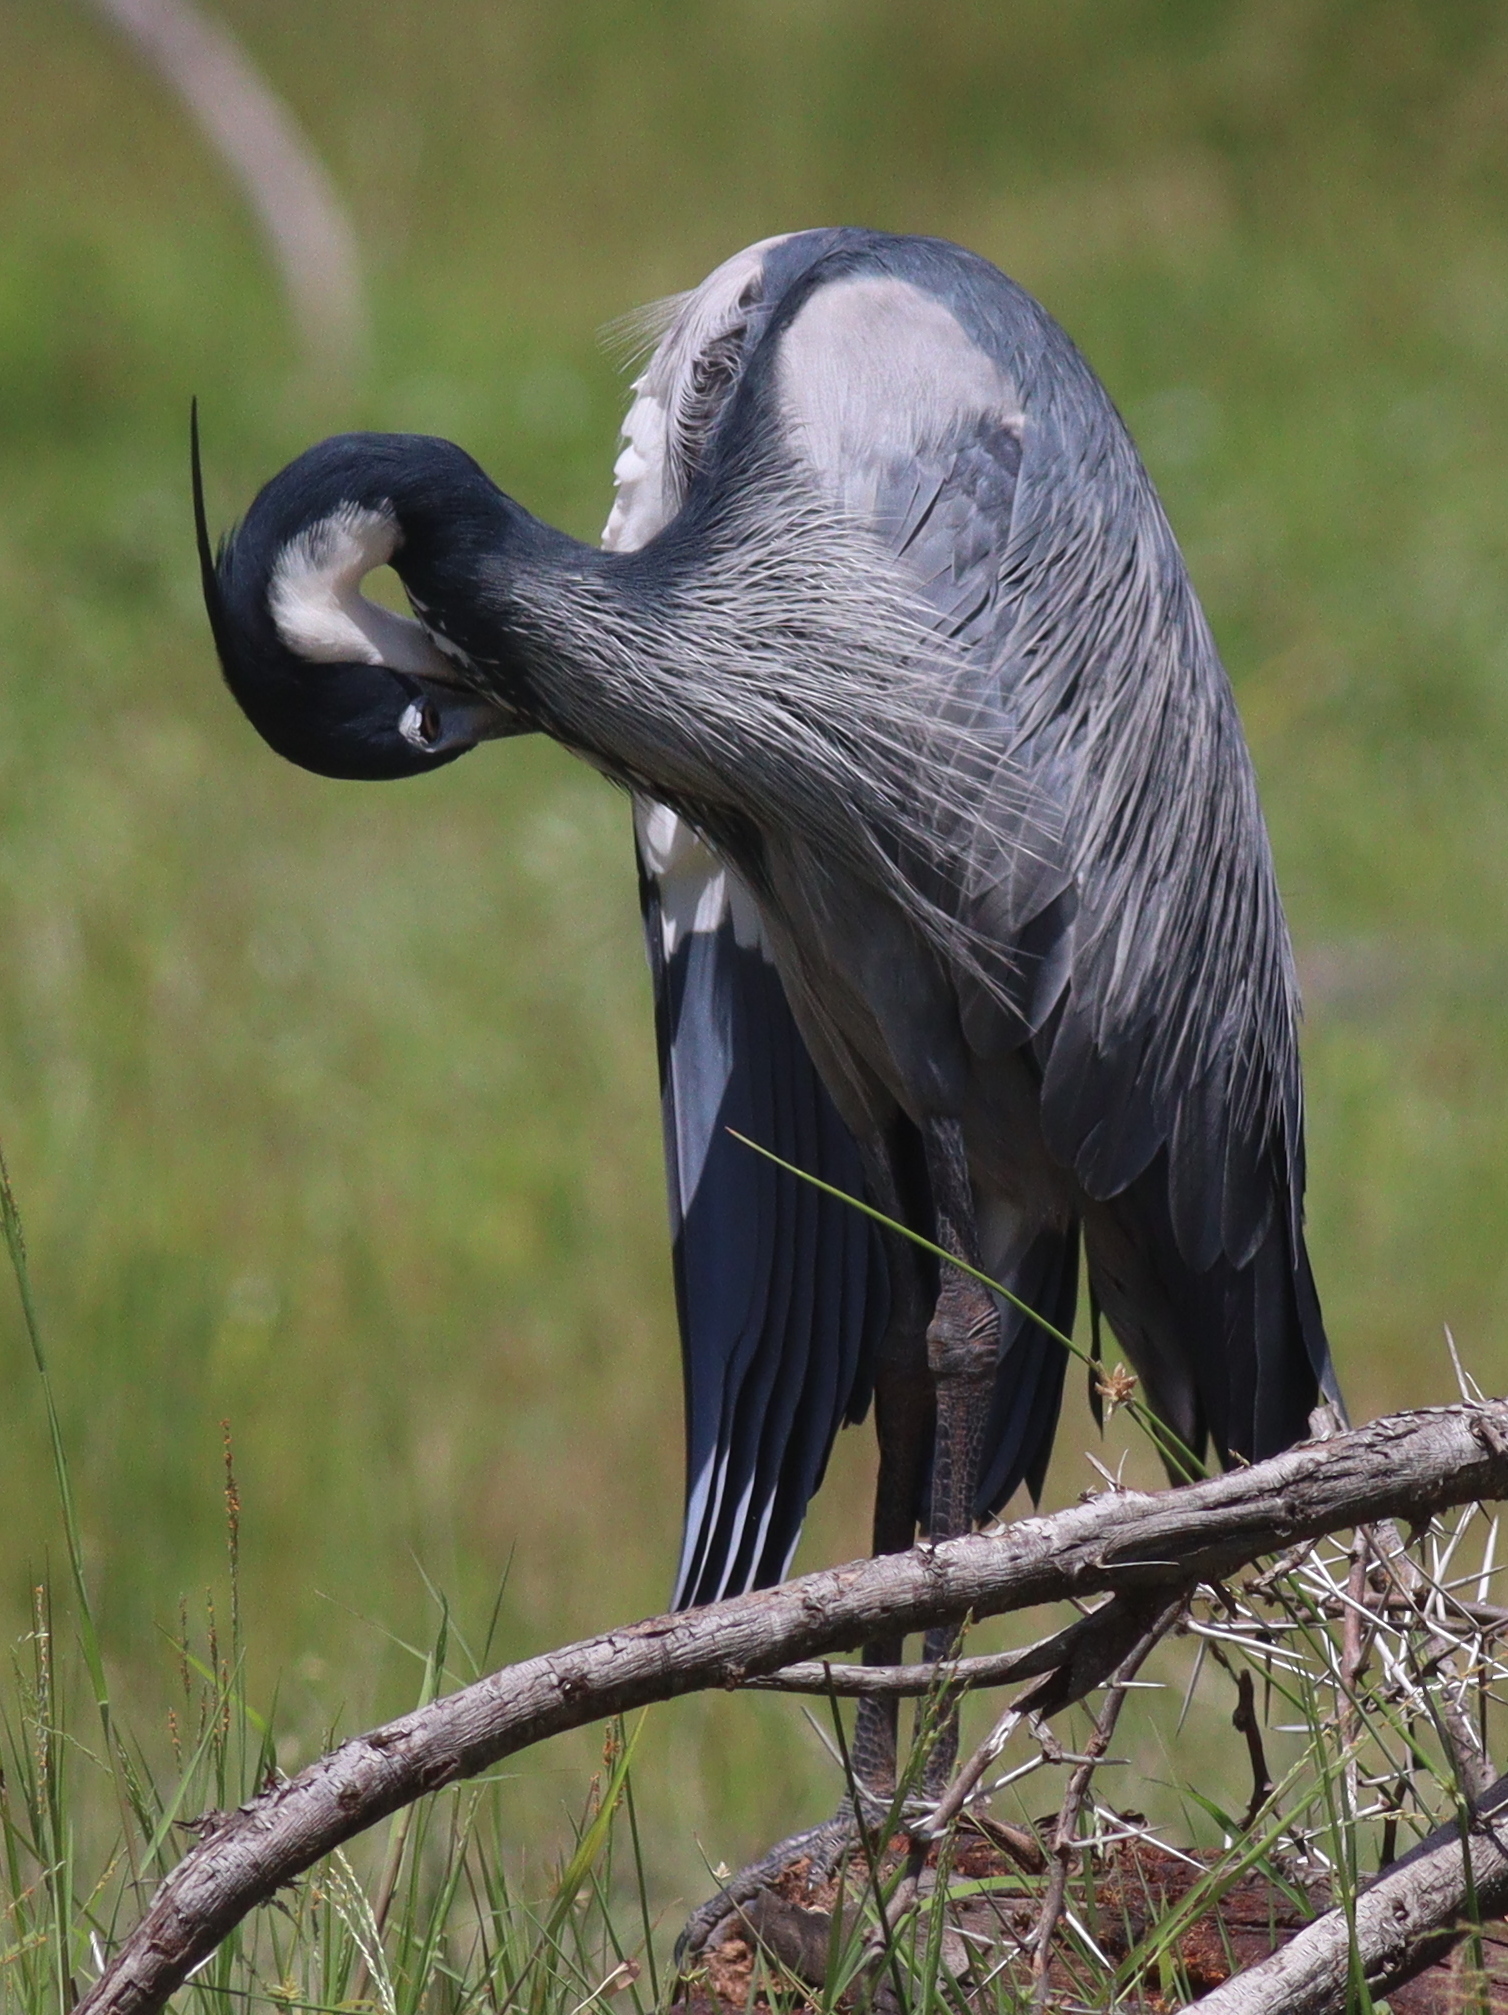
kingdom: Animalia
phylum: Chordata
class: Aves
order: Pelecaniformes
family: Ardeidae
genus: Ardea
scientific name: Ardea melanocephala
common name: Black-headed heron
